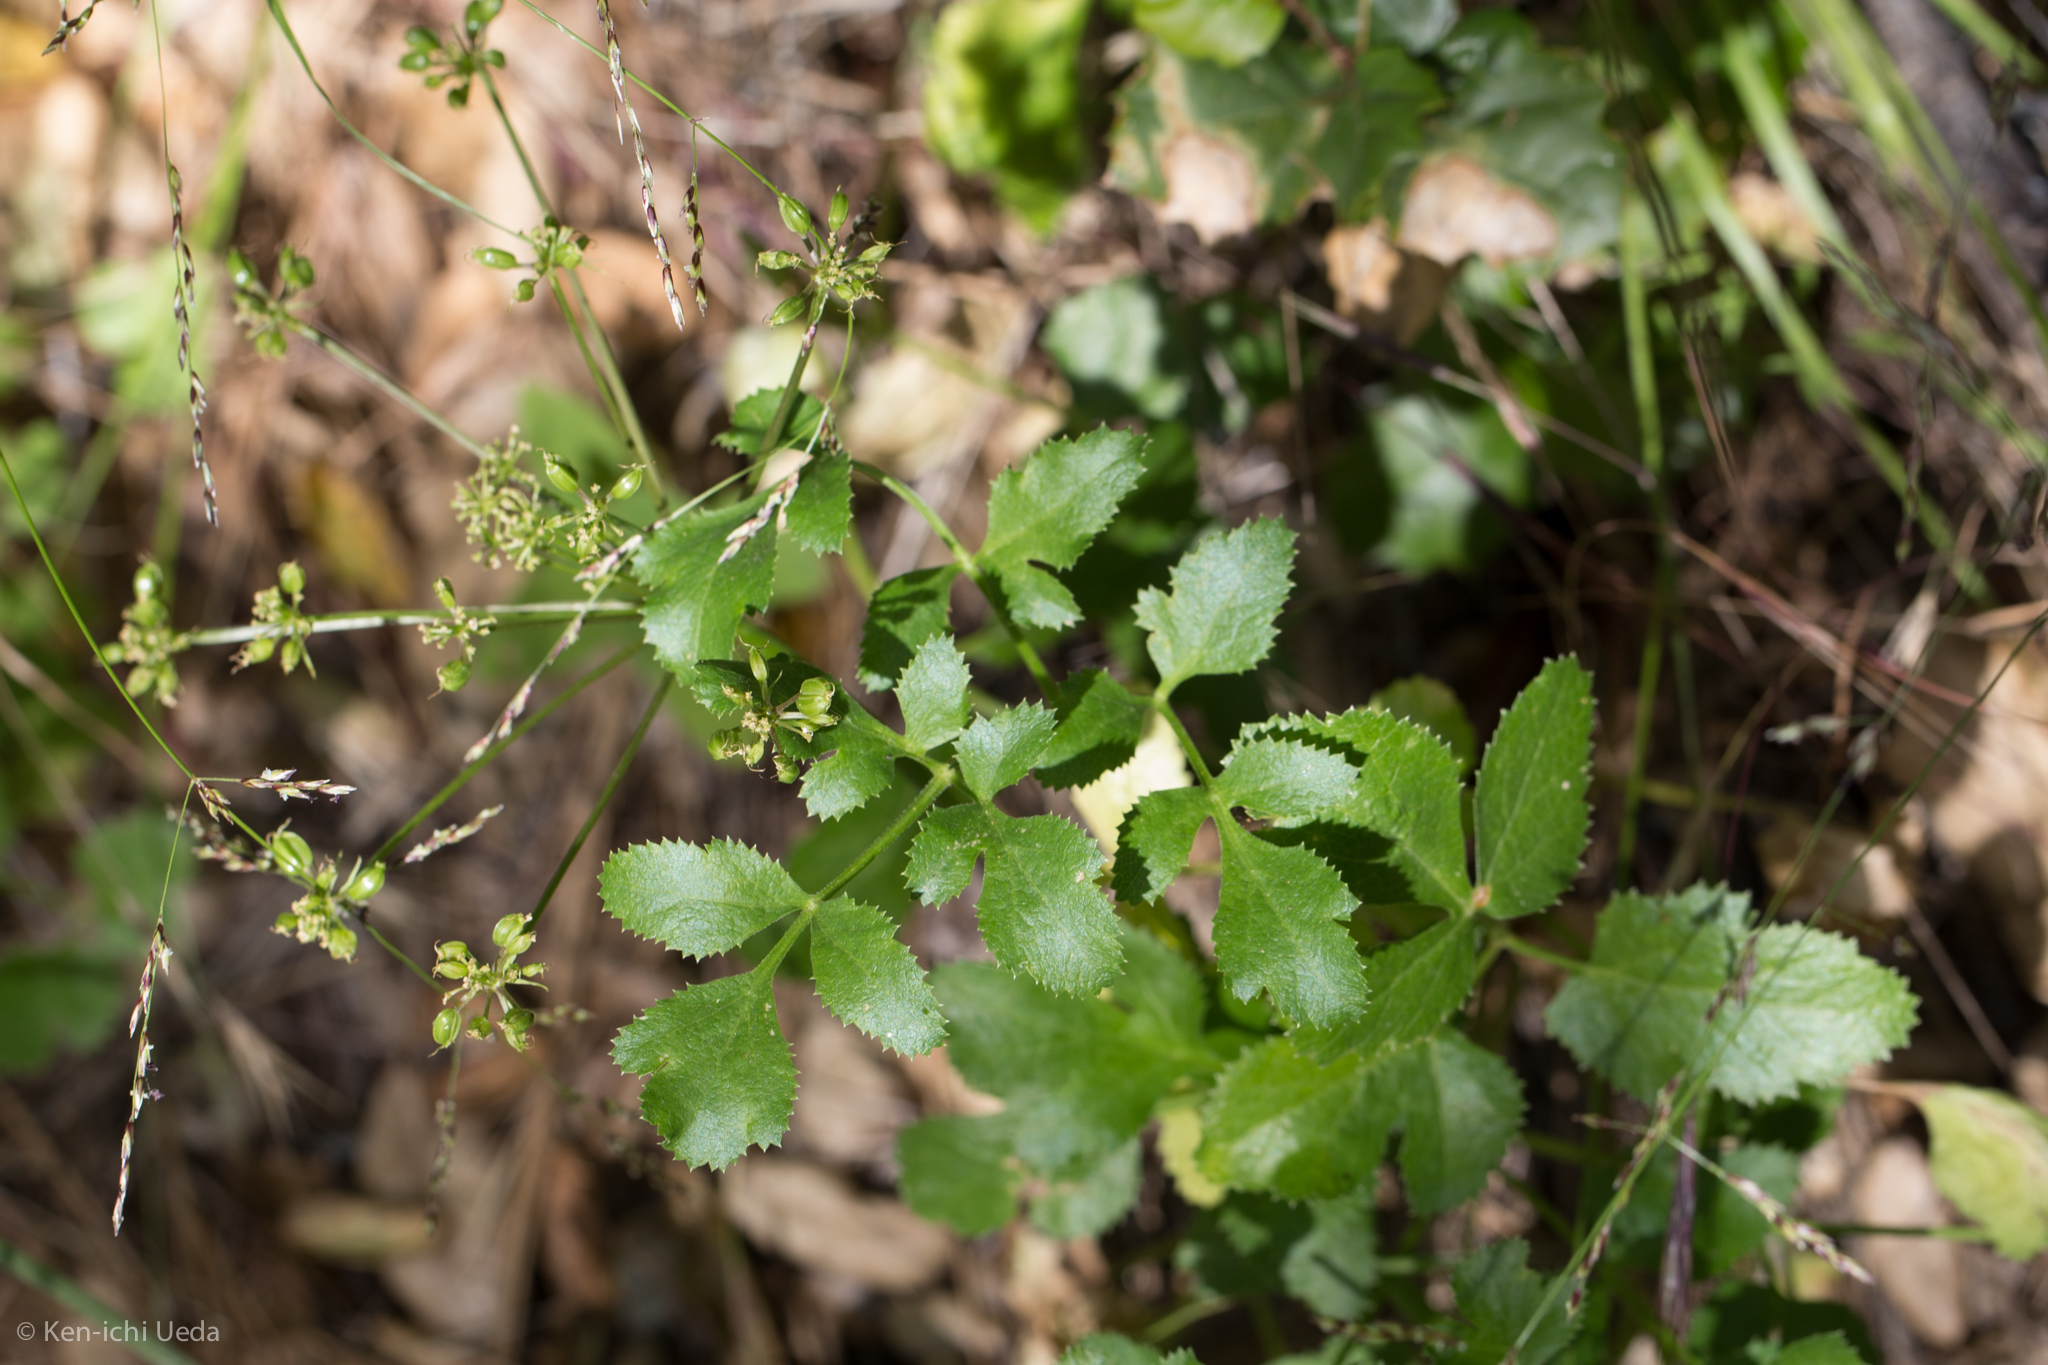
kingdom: Plantae
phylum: Tracheophyta
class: Magnoliopsida
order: Apiales
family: Apiaceae
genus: Tauschia
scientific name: Tauschia hartwegii
